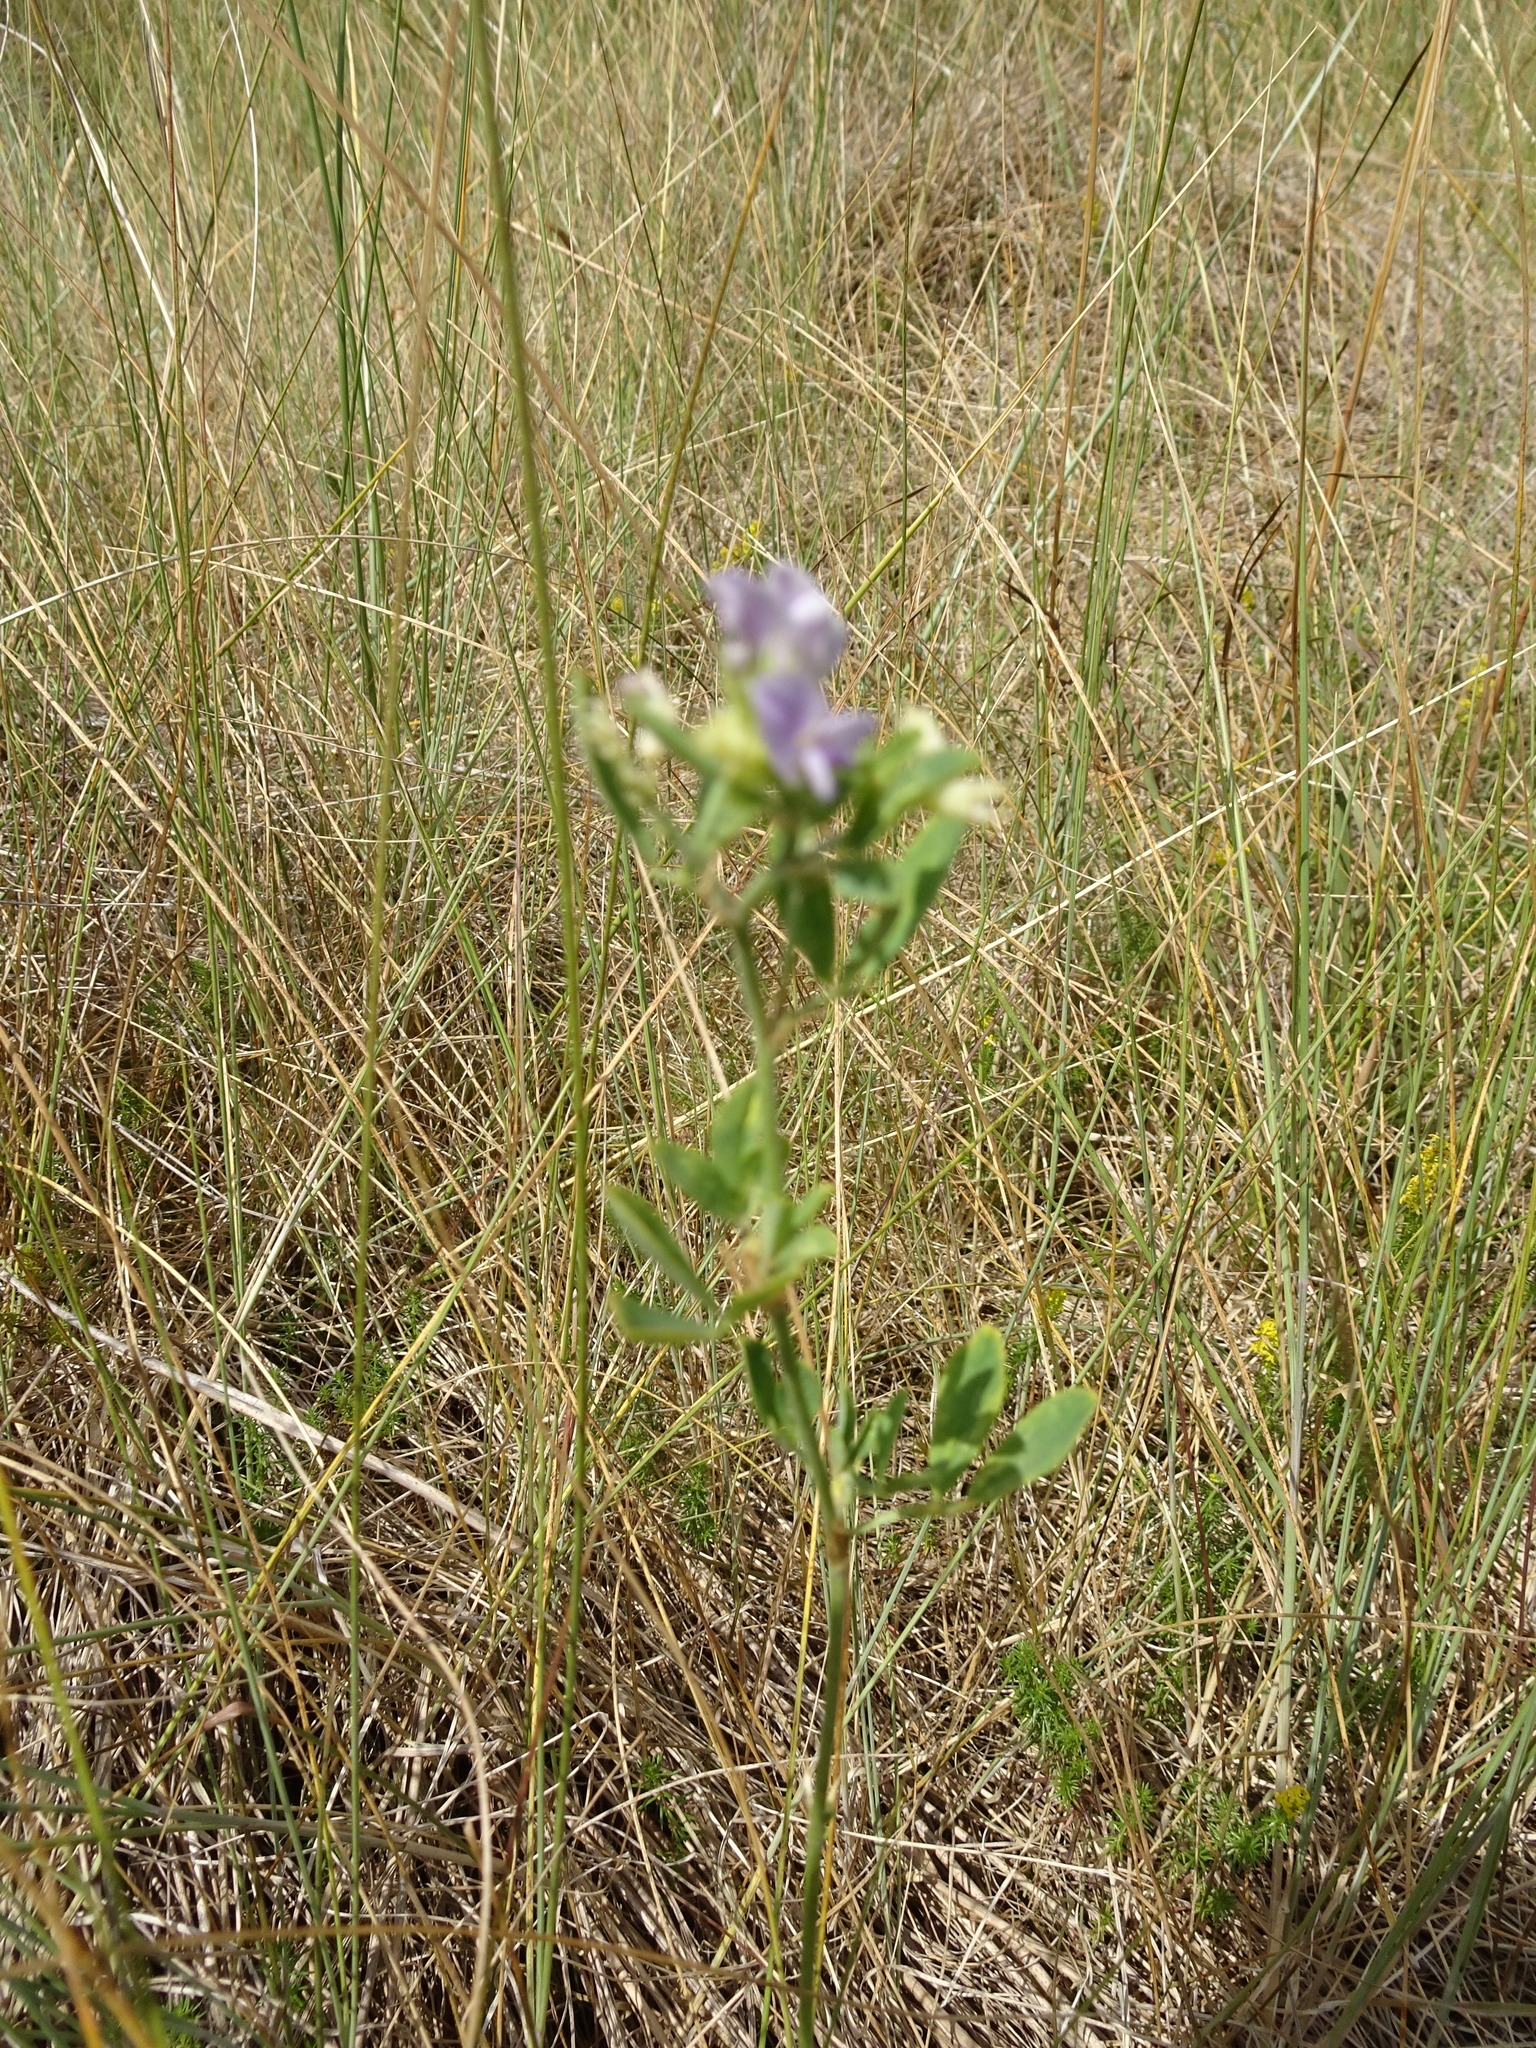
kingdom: Plantae
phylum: Tracheophyta
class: Magnoliopsida
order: Fabales
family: Fabaceae
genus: Medicago
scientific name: Medicago sativa
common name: Alfalfa
